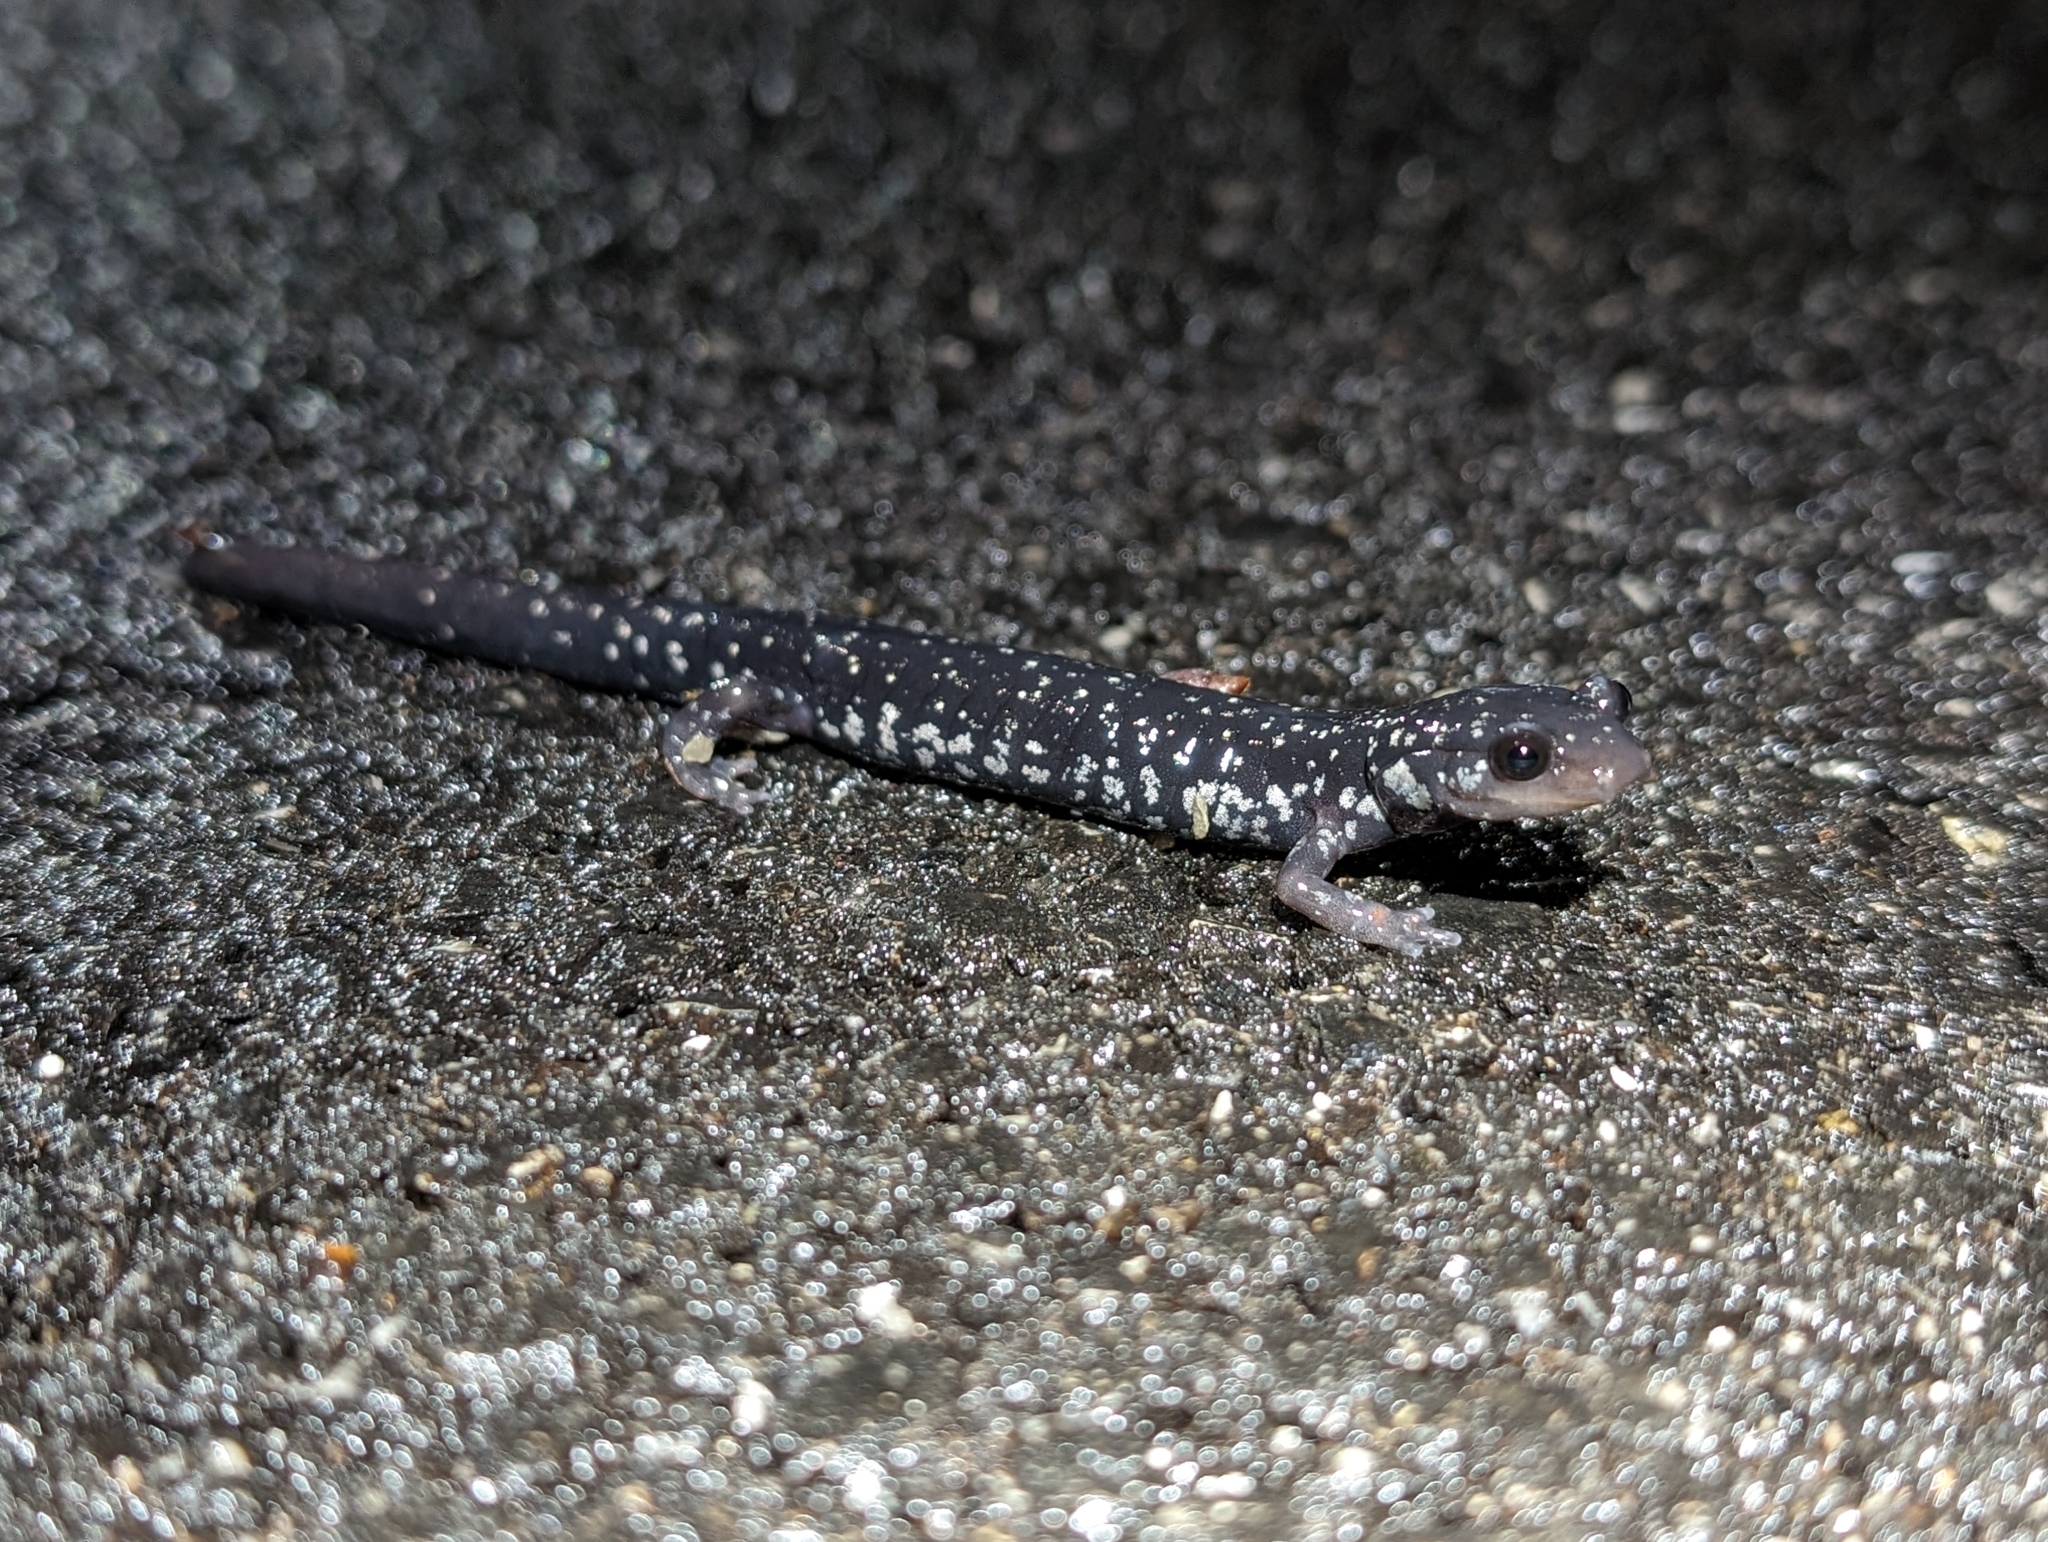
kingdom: Animalia
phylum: Chordata
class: Amphibia
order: Caudata
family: Plethodontidae
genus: Plethodon
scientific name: Plethodon glutinosus
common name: Northern slimy salamander
